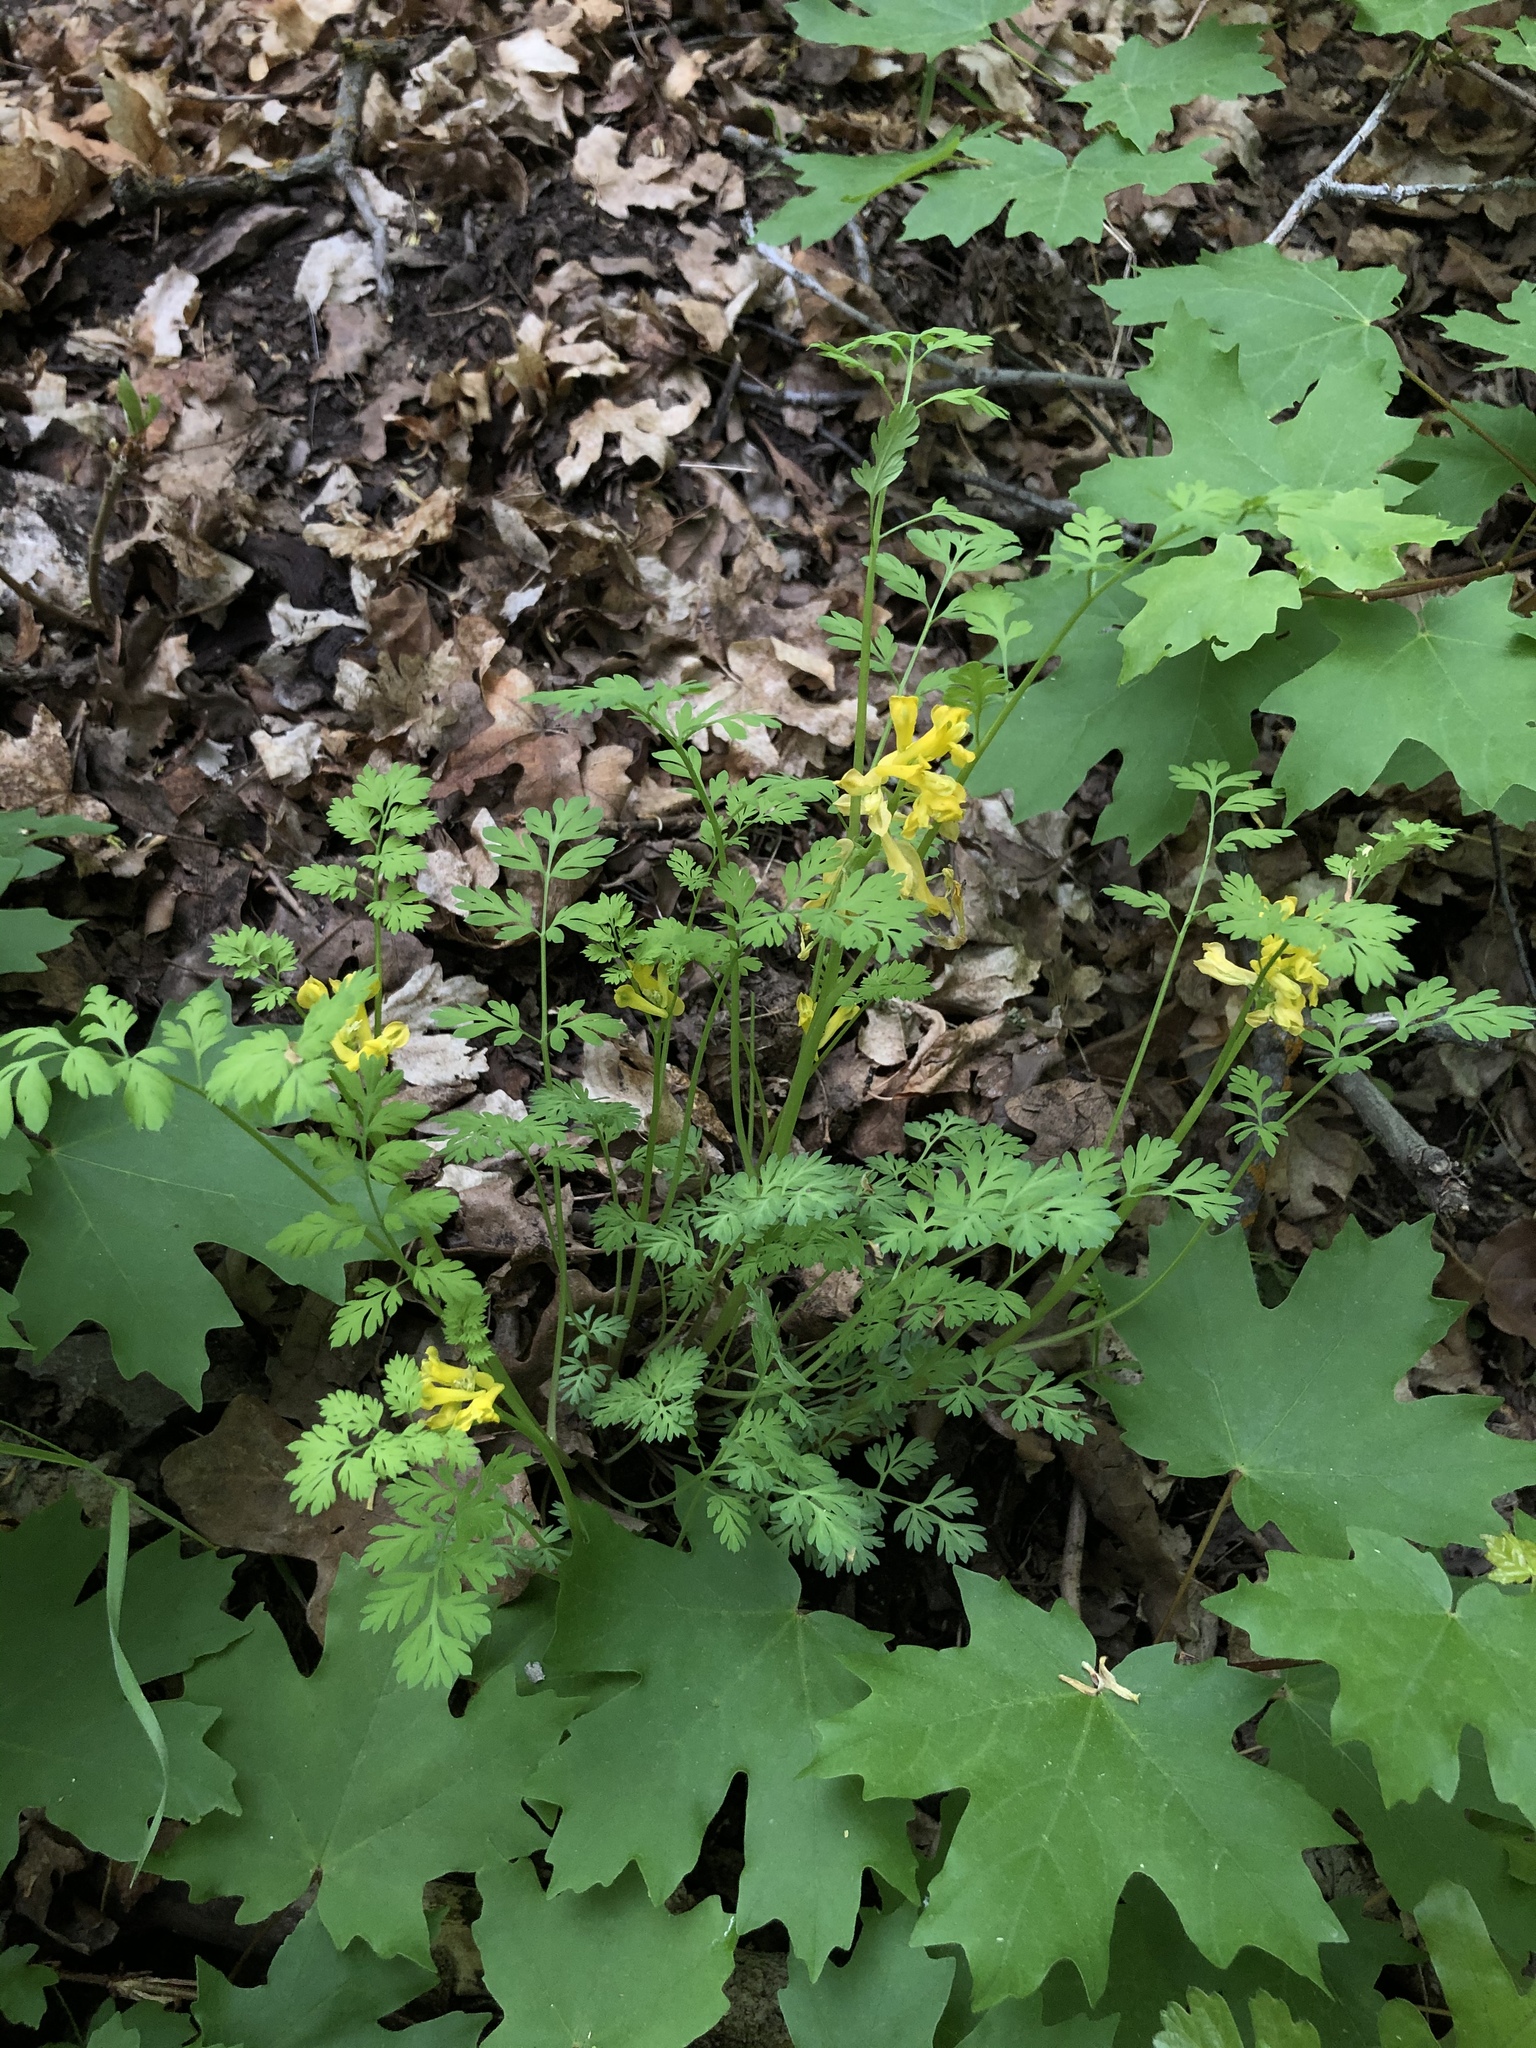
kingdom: Plantae
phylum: Tracheophyta
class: Magnoliopsida
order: Ranunculales
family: Papaveraceae
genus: Corydalis
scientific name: Corydalis aurea
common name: Golden corydalis
